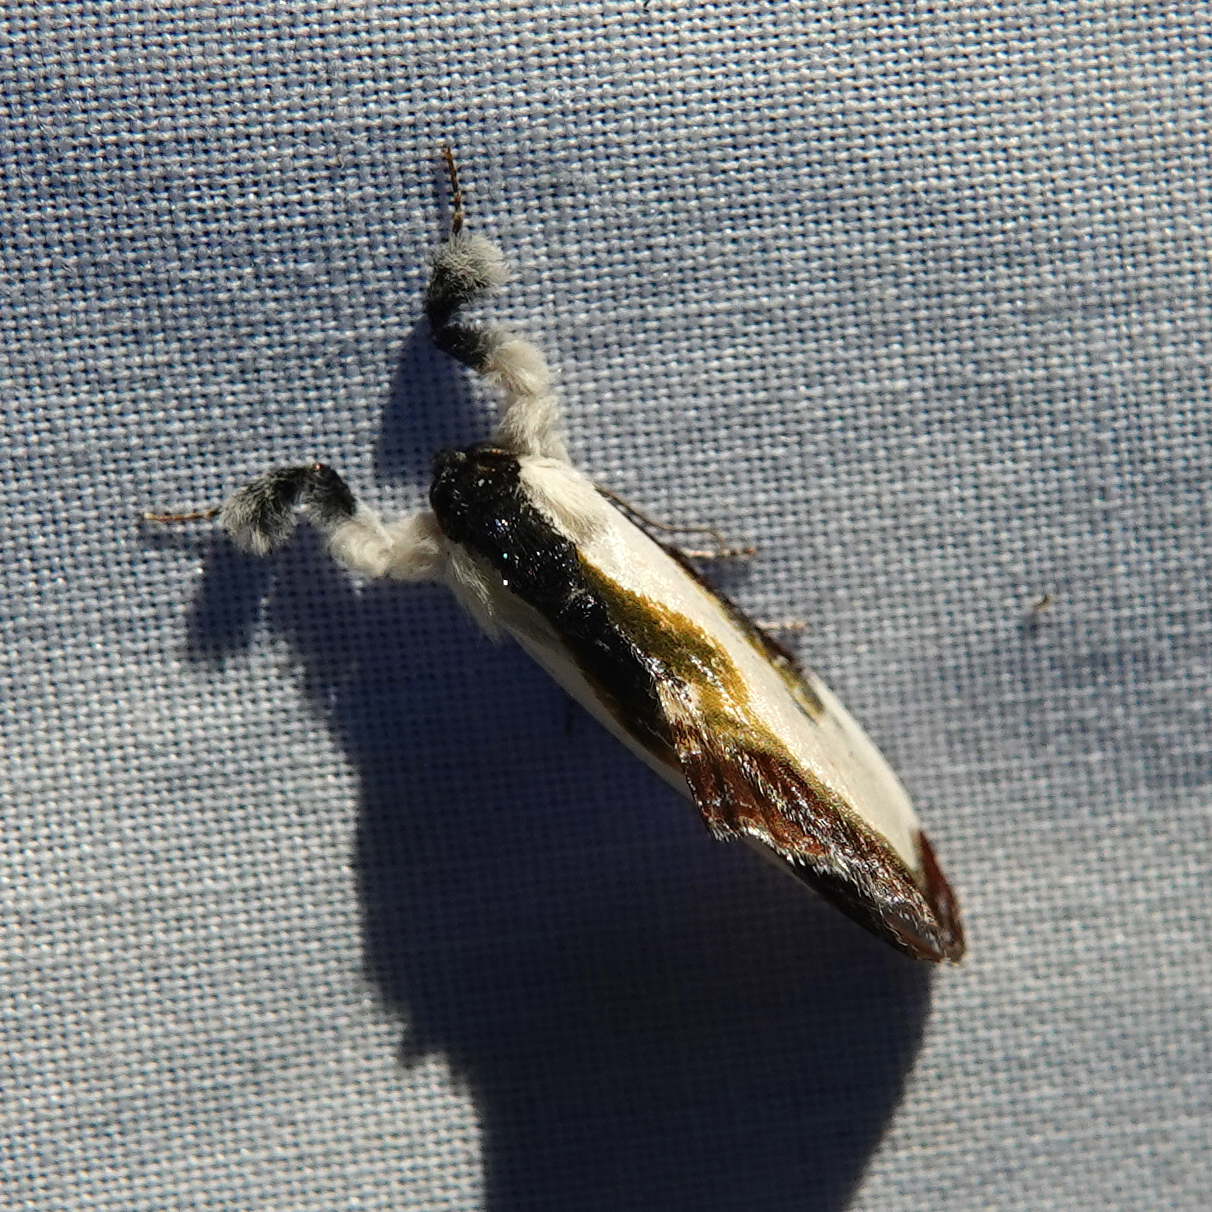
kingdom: Animalia
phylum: Arthropoda
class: Insecta
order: Lepidoptera
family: Noctuidae
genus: Eudryas
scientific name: Eudryas grata
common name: Beautiful wood-nymph
